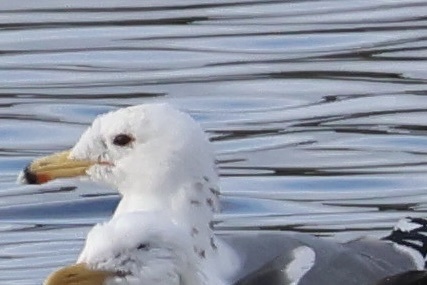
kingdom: Animalia
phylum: Chordata
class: Aves
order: Charadriiformes
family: Laridae
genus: Larus
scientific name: Larus californicus
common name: California gull
